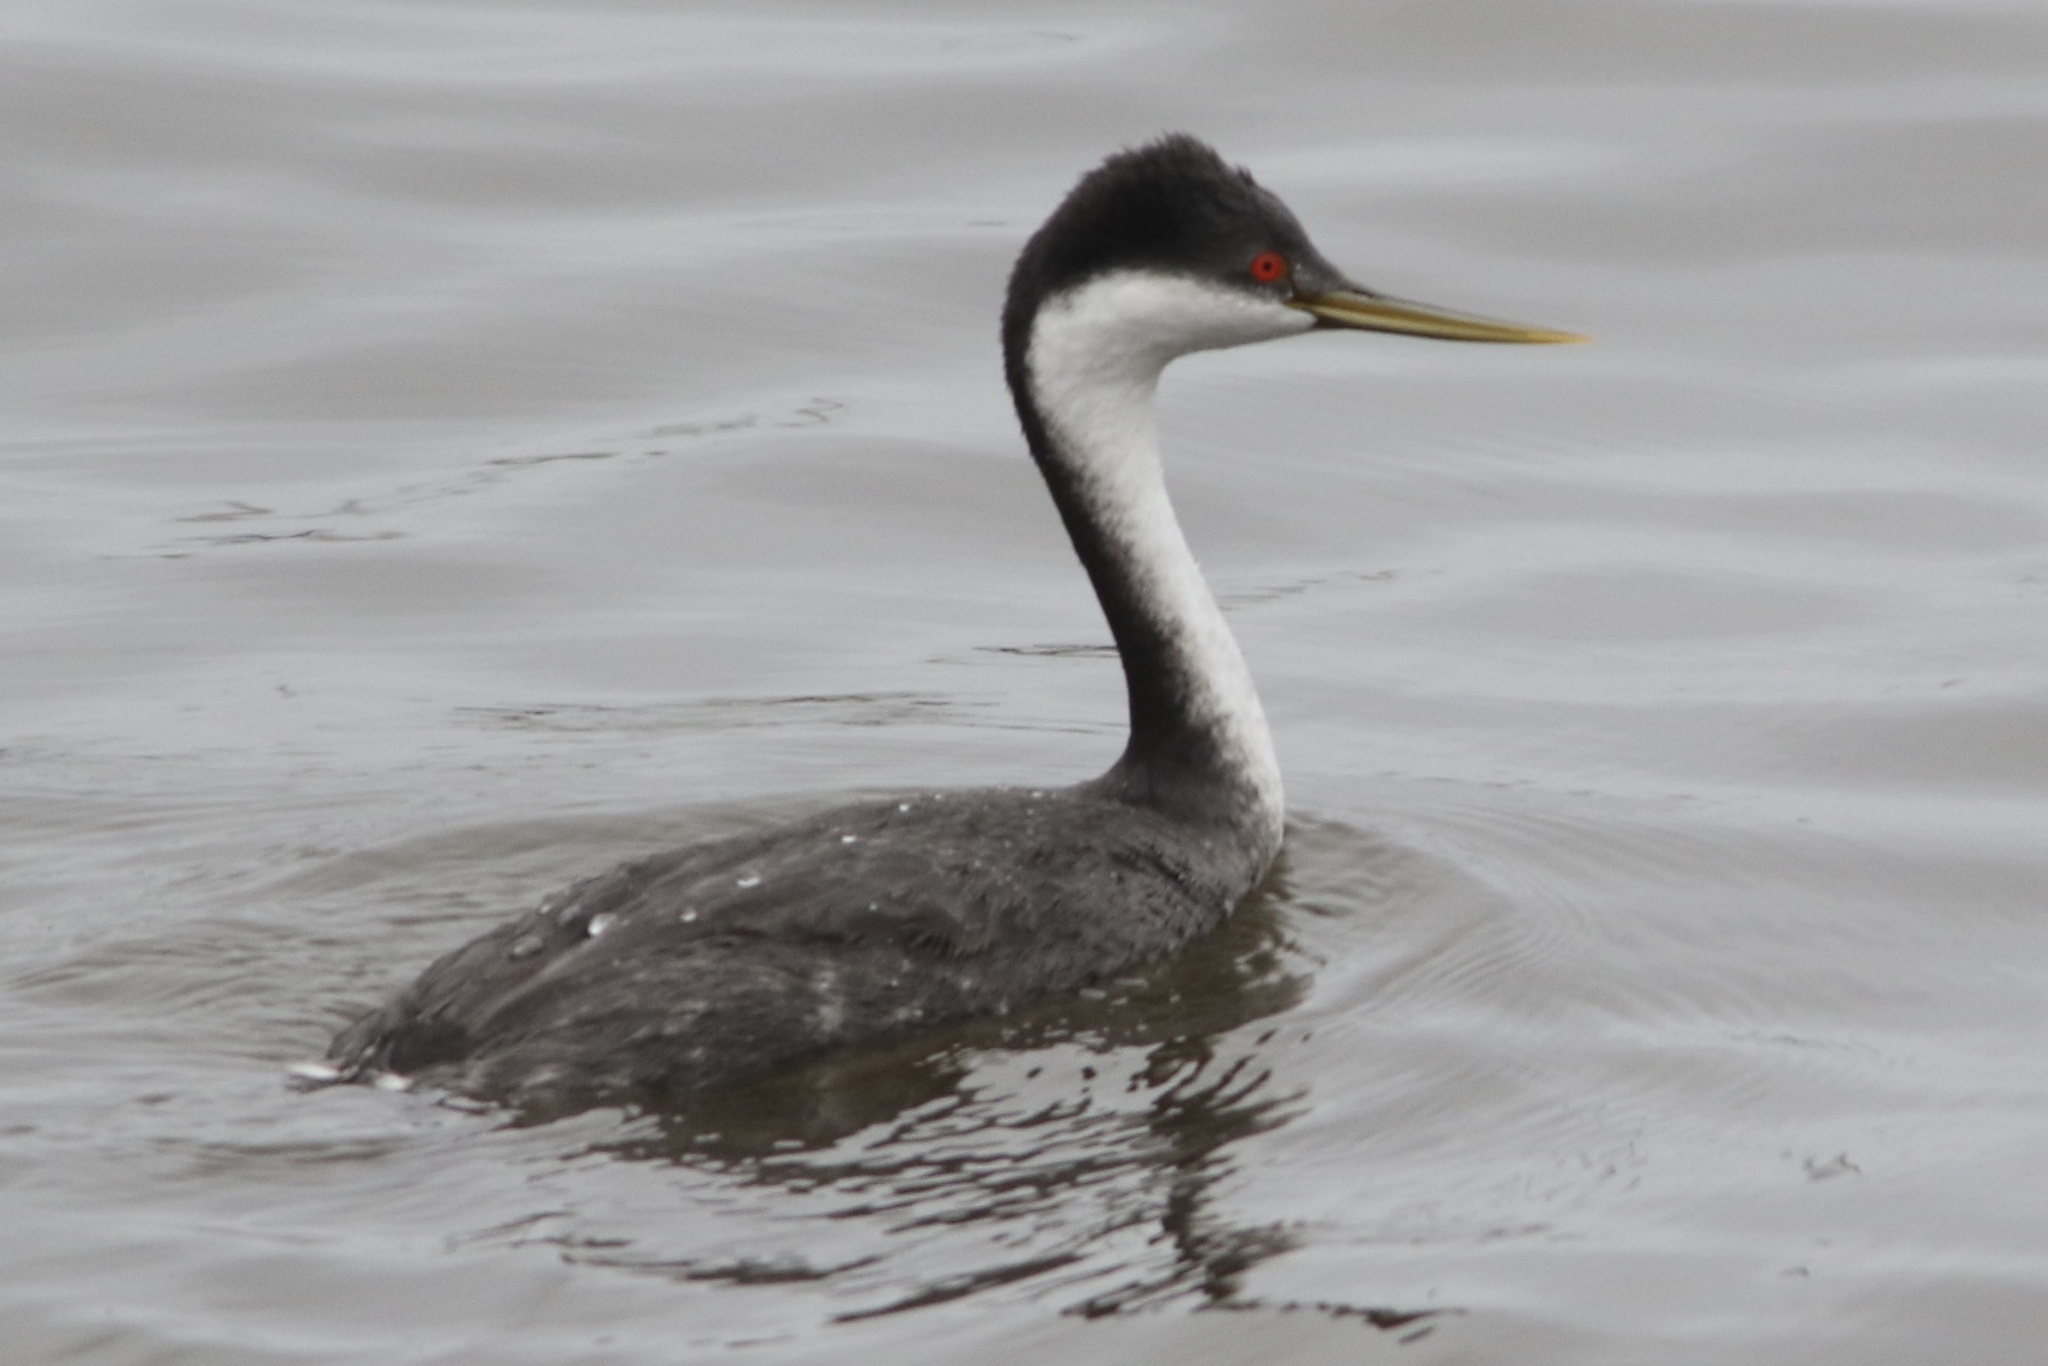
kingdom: Animalia
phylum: Chordata
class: Aves
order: Podicipediformes
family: Podicipedidae
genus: Aechmophorus
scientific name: Aechmophorus occidentalis
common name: Western grebe
